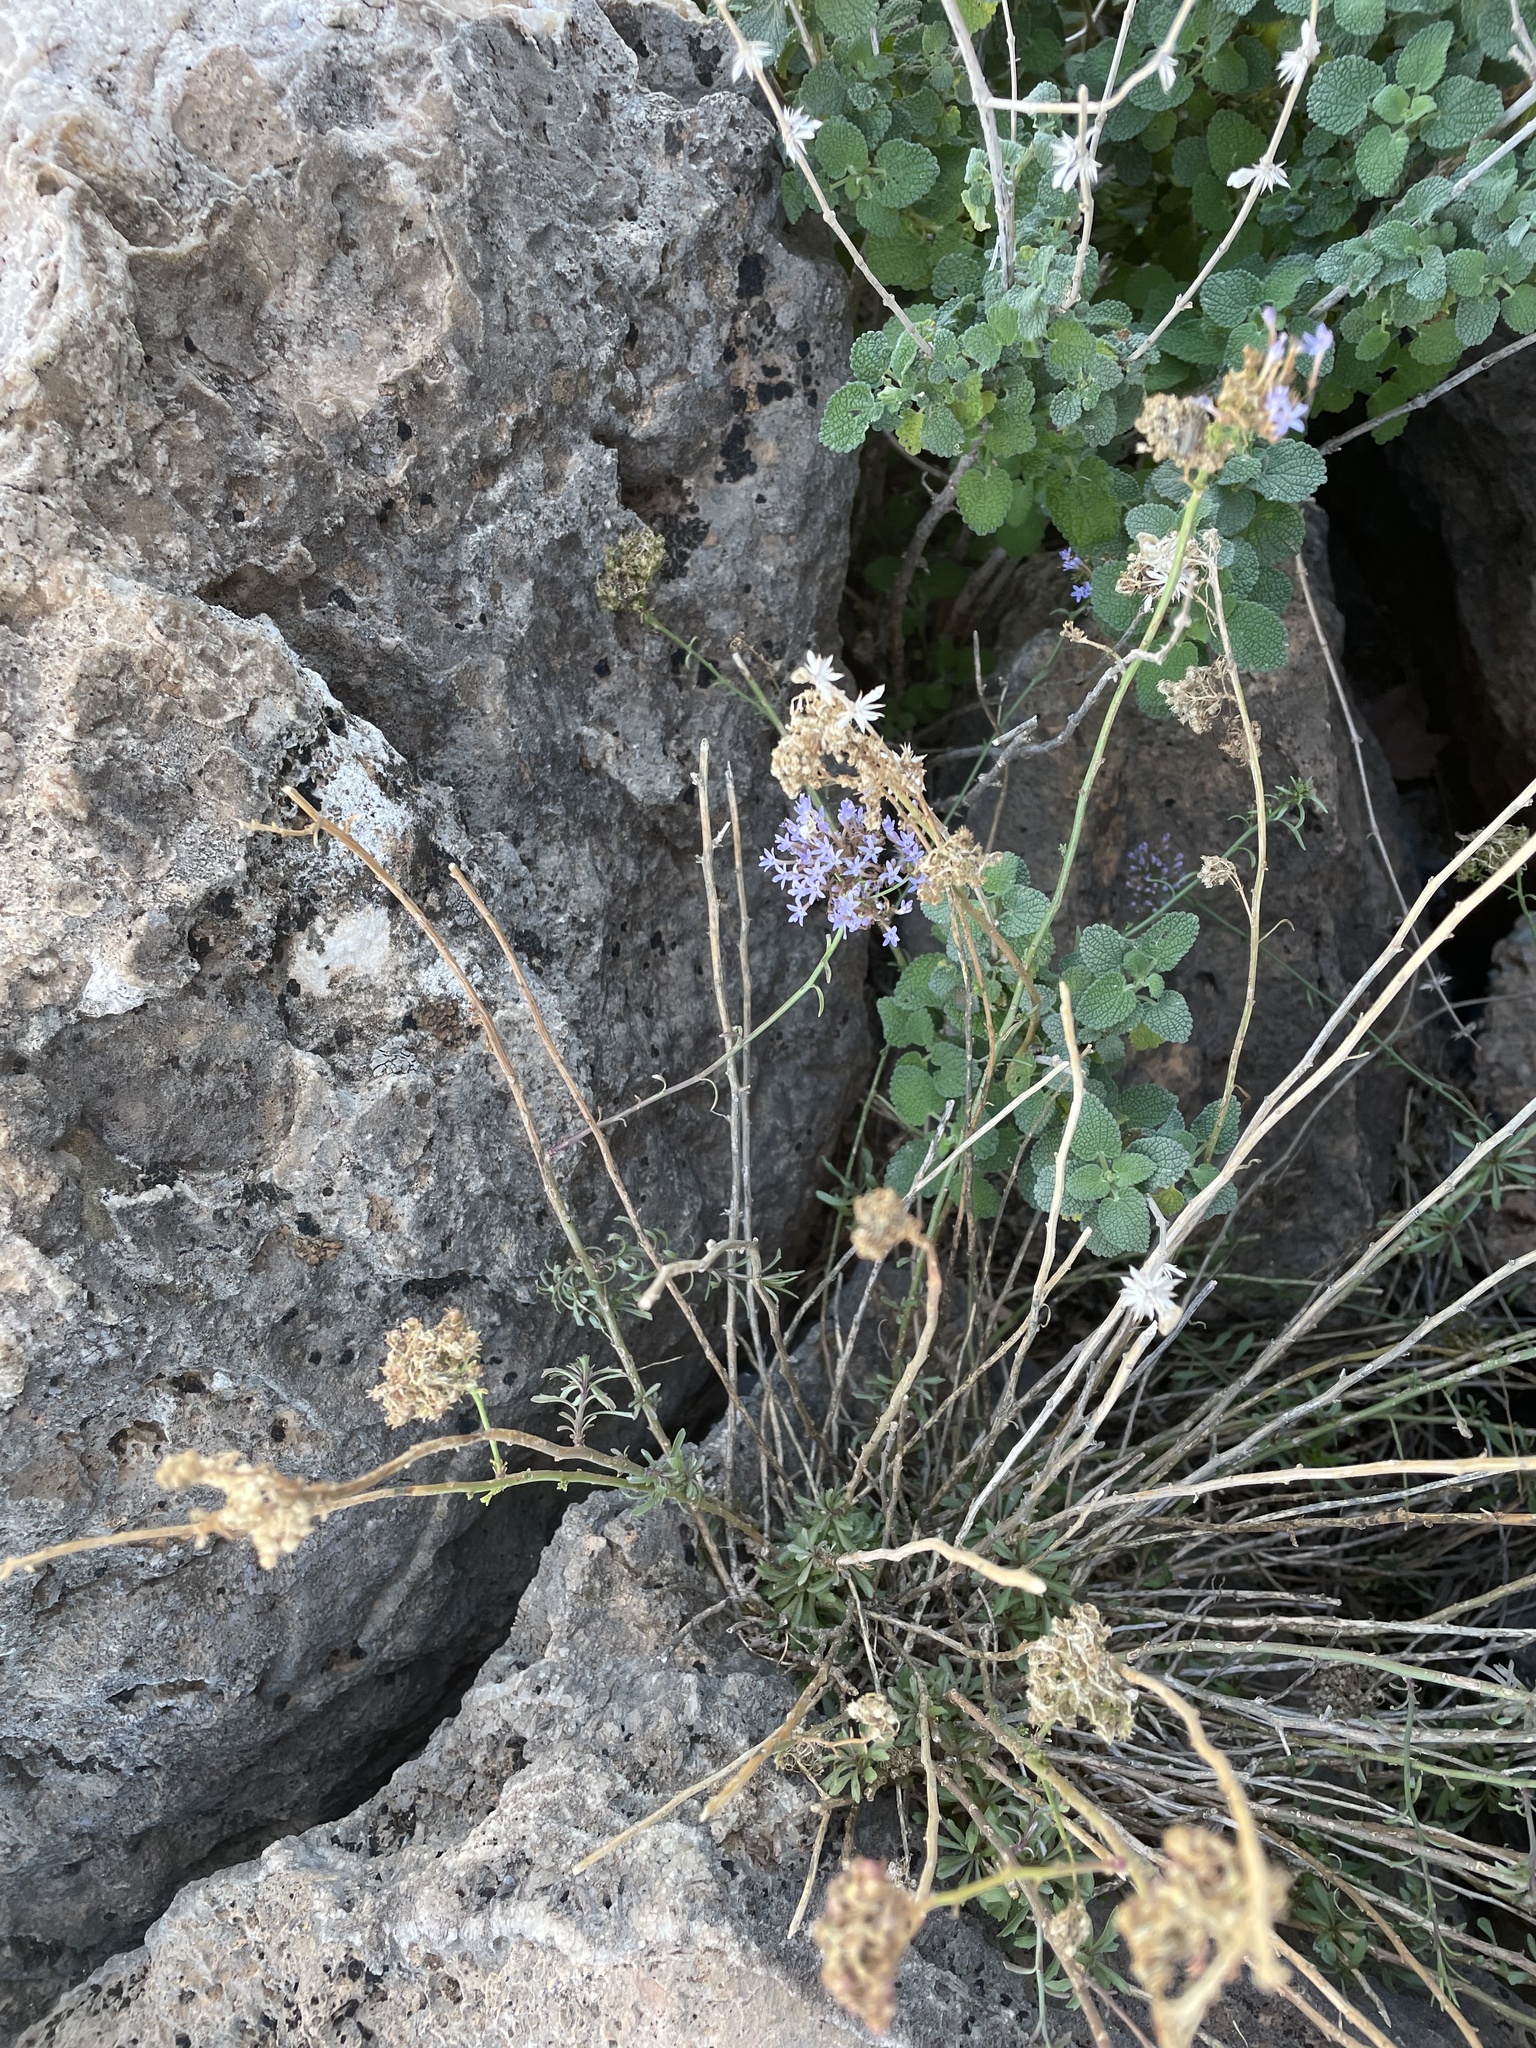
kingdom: Plantae
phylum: Tracheophyta
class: Magnoliopsida
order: Asterales
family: Campanulaceae
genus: Feeria
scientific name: Feeria angustifolia
